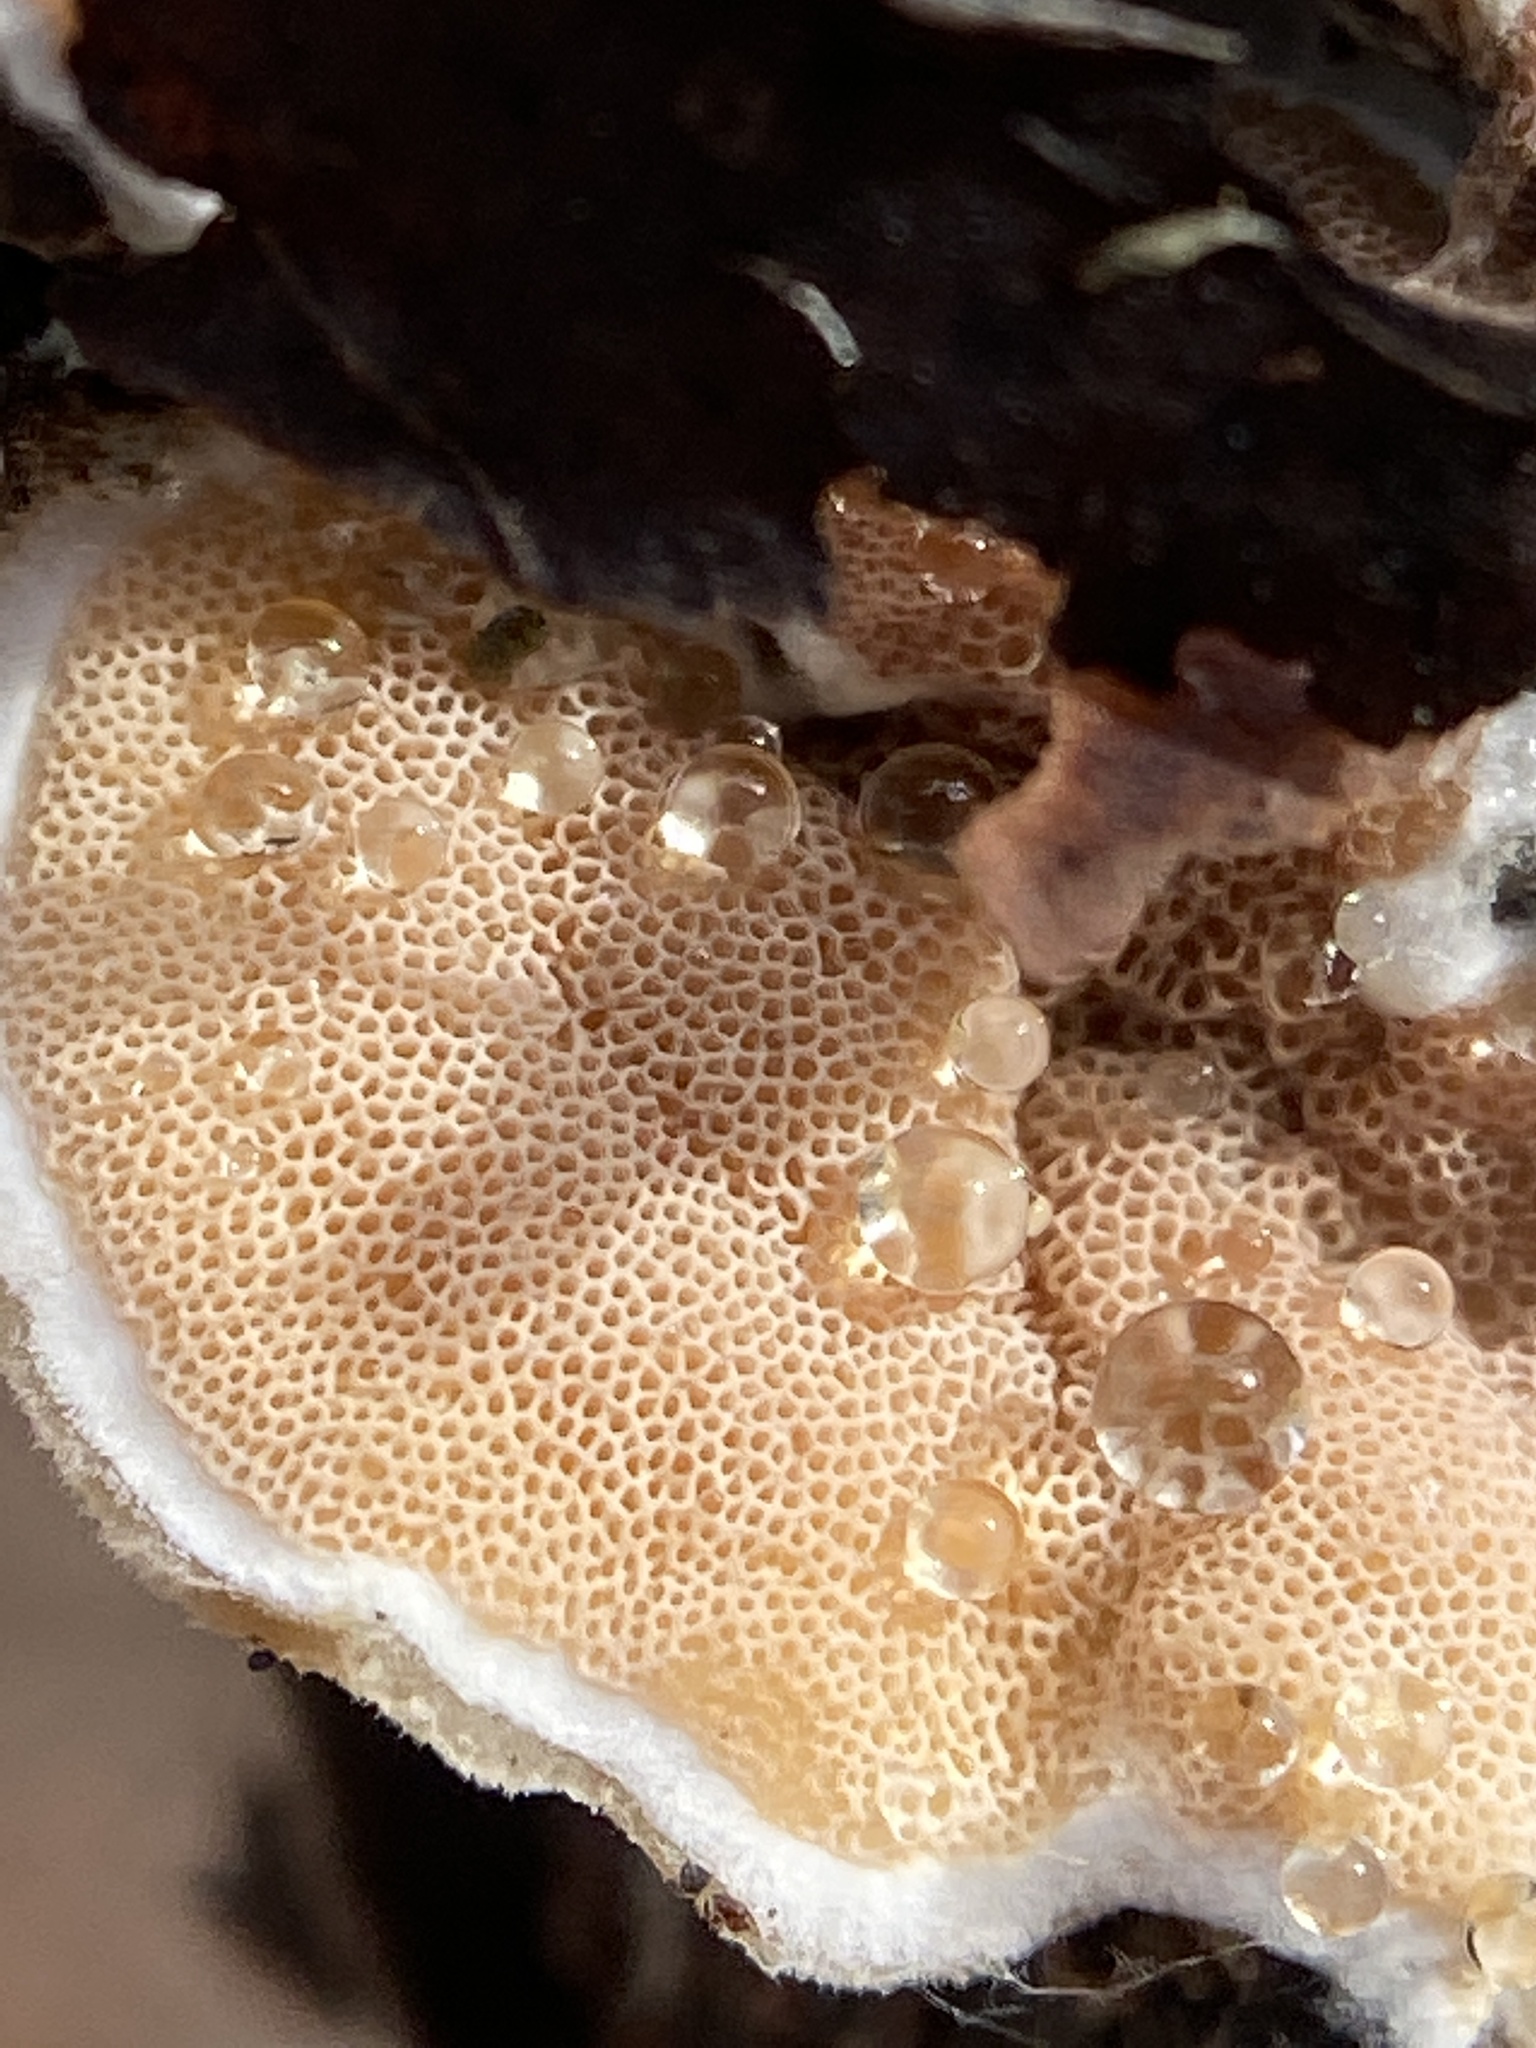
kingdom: Fungi
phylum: Basidiomycota
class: Agaricomycetes
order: Polyporales
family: Irpicaceae
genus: Vitreoporus
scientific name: Vitreoporus dichrous
